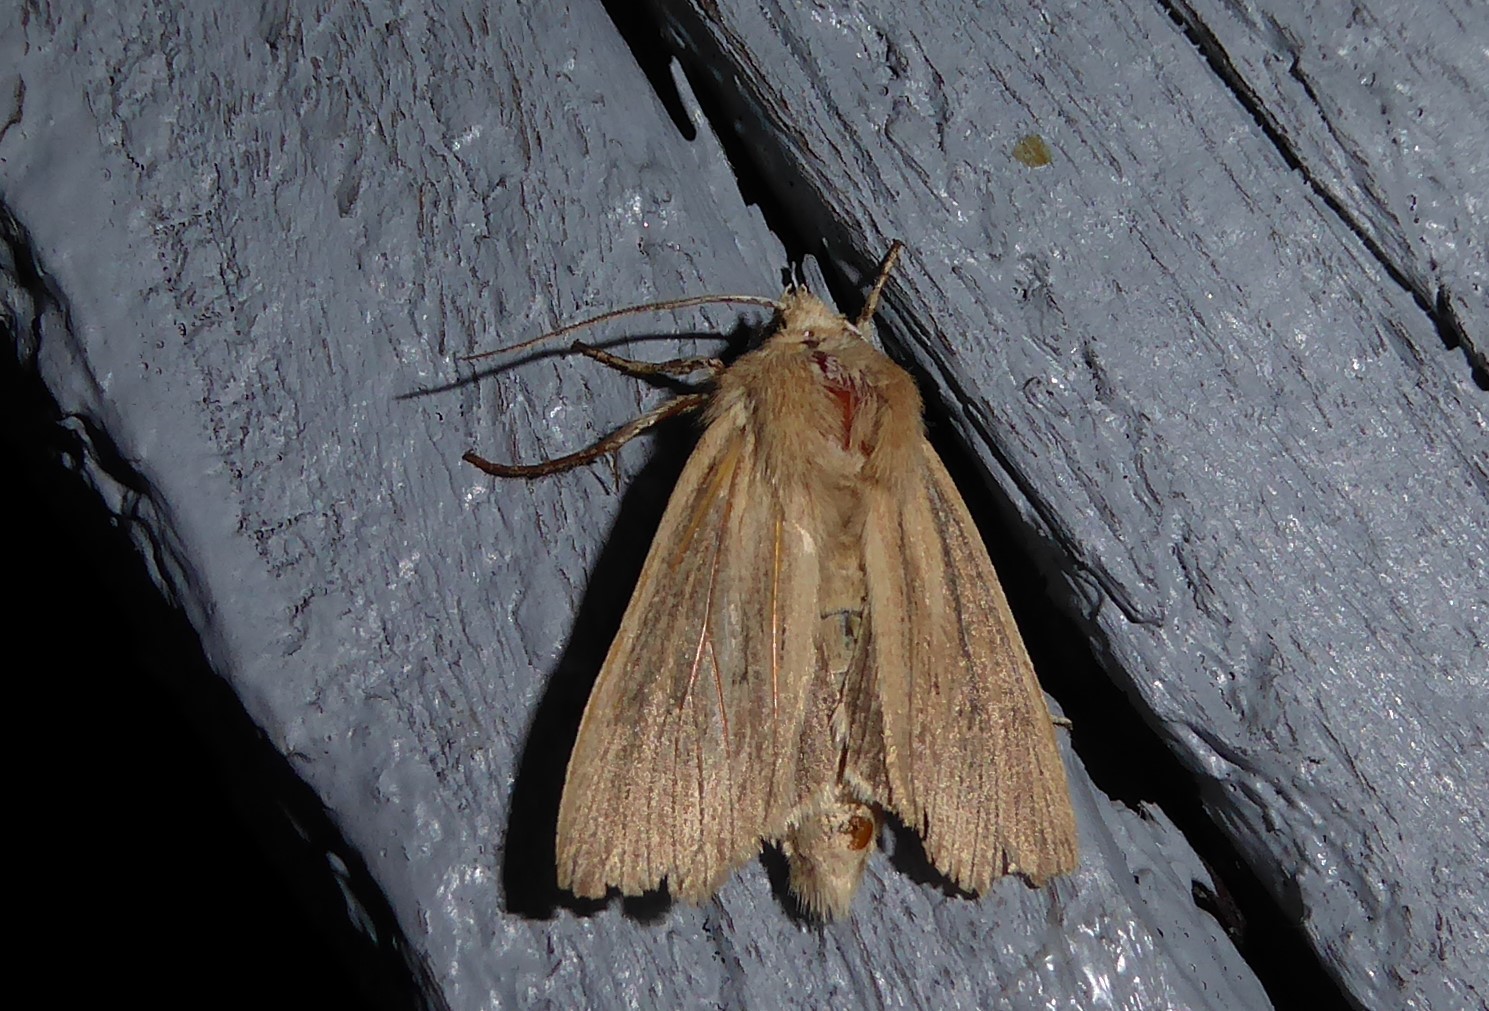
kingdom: Animalia
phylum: Arthropoda
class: Insecta
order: Lepidoptera
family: Noctuidae
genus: Ichneutica
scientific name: Ichneutica arotis
